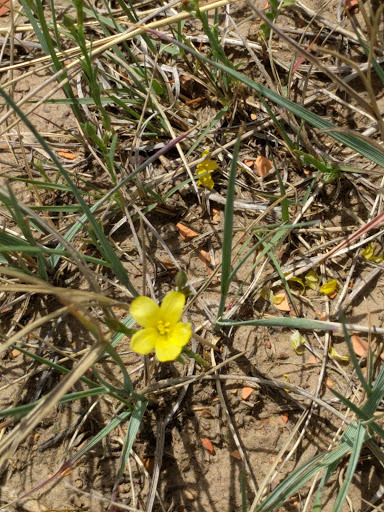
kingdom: Plantae
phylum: Tracheophyta
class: Magnoliopsida
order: Malpighiales
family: Linaceae
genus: Linum
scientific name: Linum rigidum
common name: Stiff-stem flax
